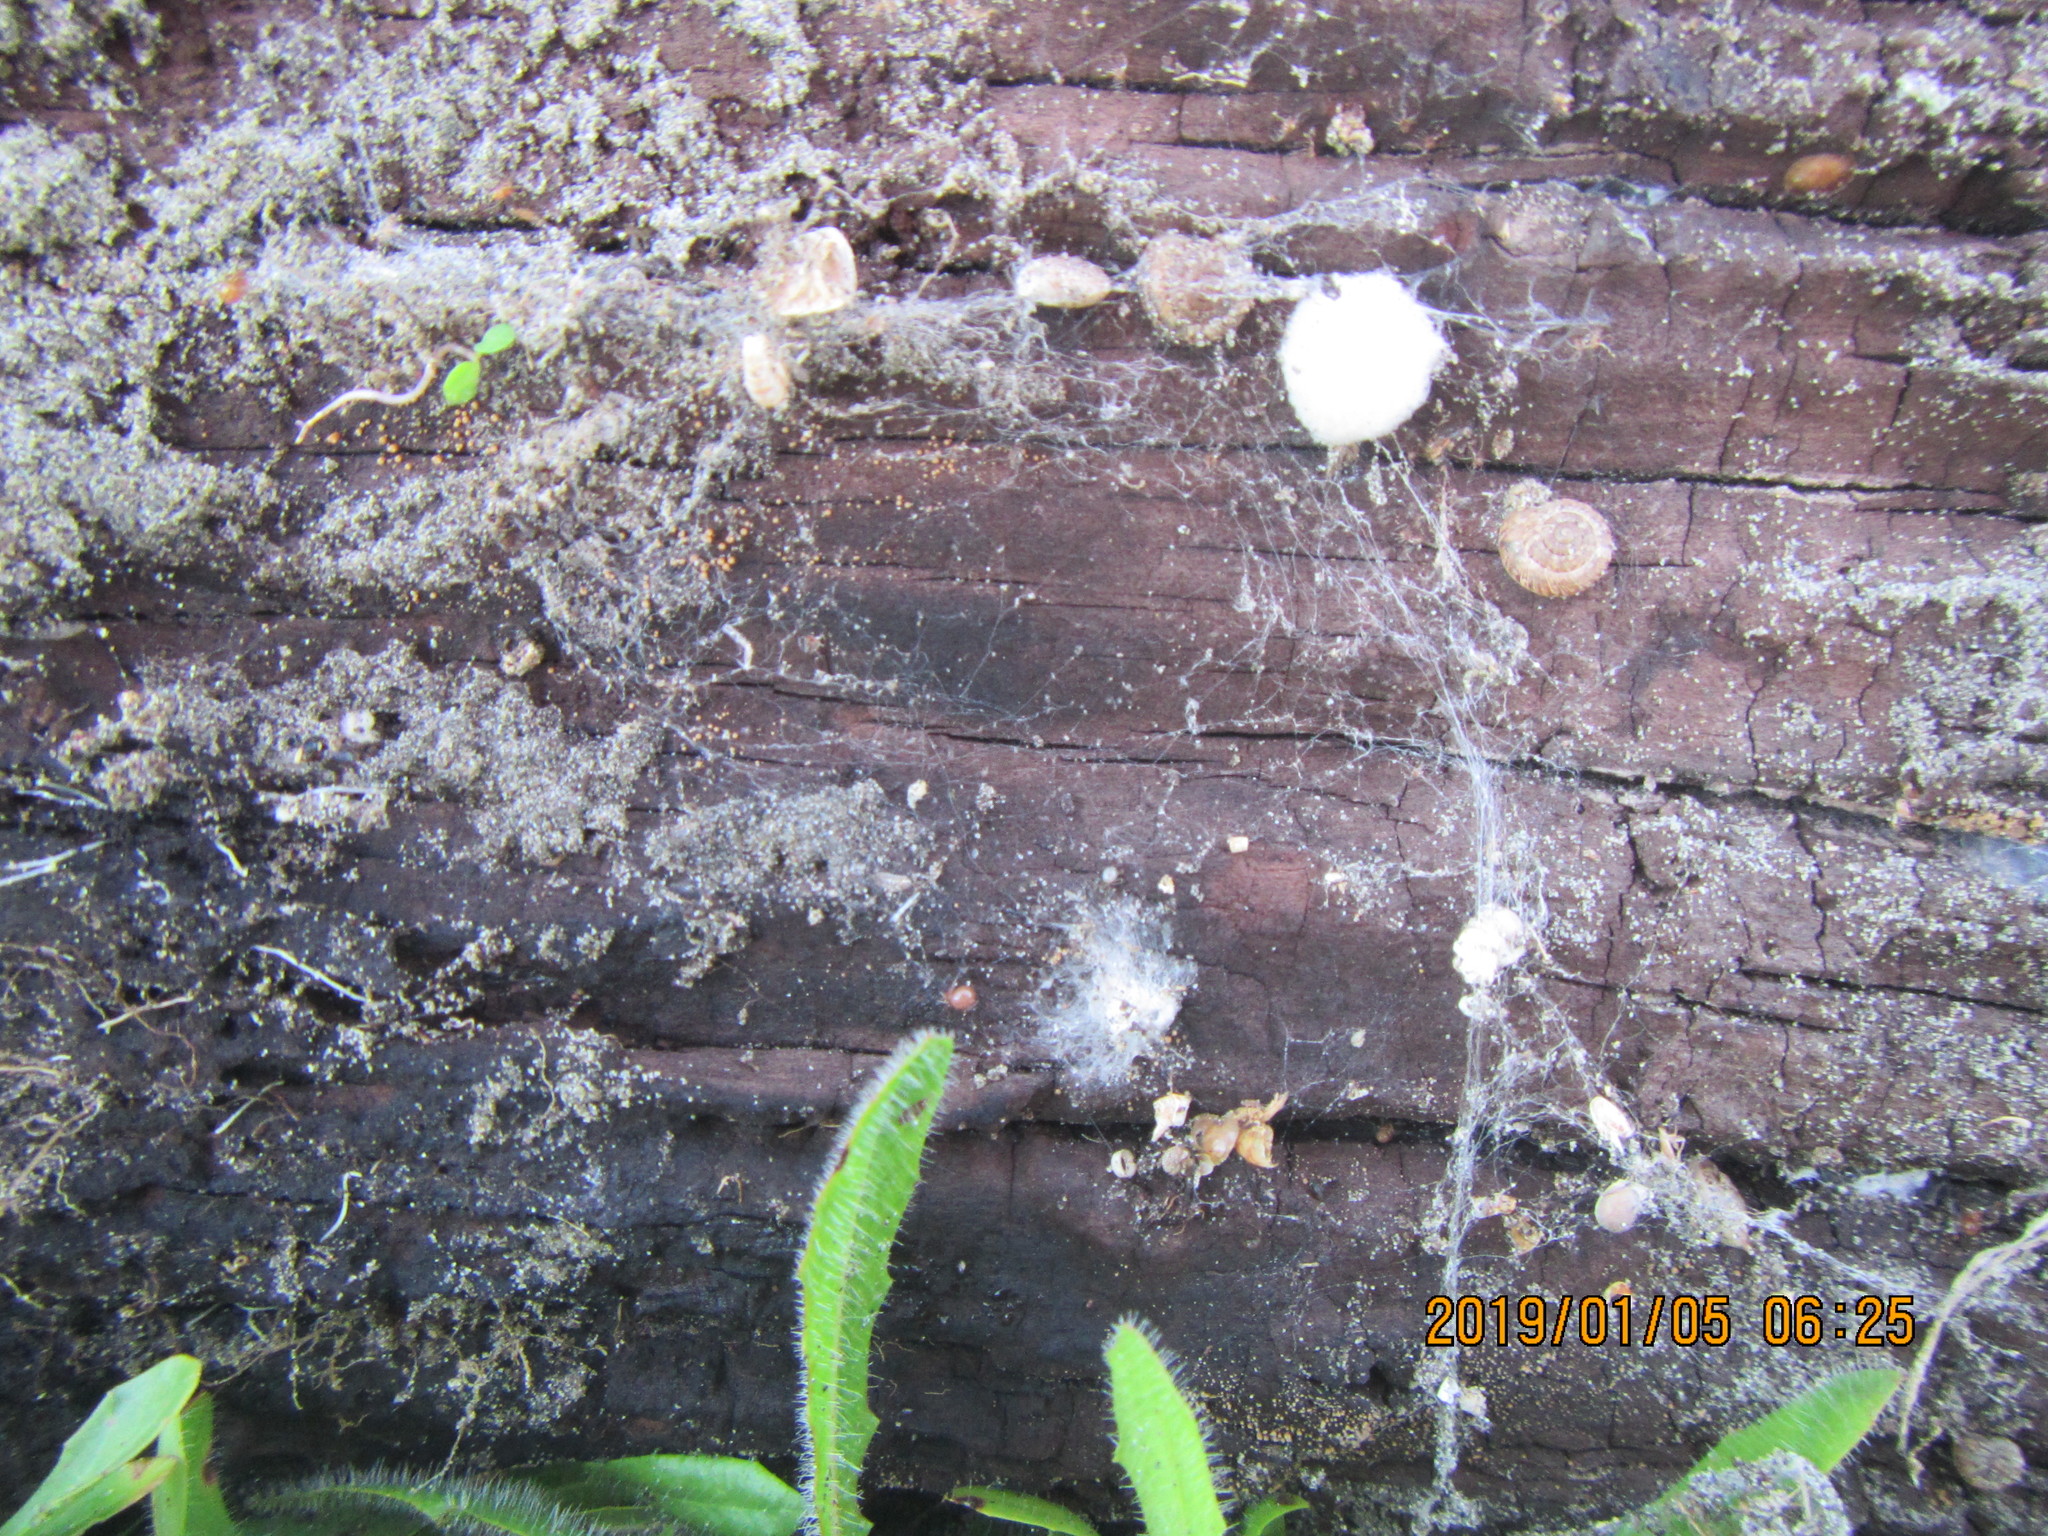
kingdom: Animalia
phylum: Mollusca
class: Gastropoda
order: Stylommatophora
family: Geomitridae
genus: Xeroplexa
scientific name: Xeroplexa intersecta
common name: Wrinkled snail
